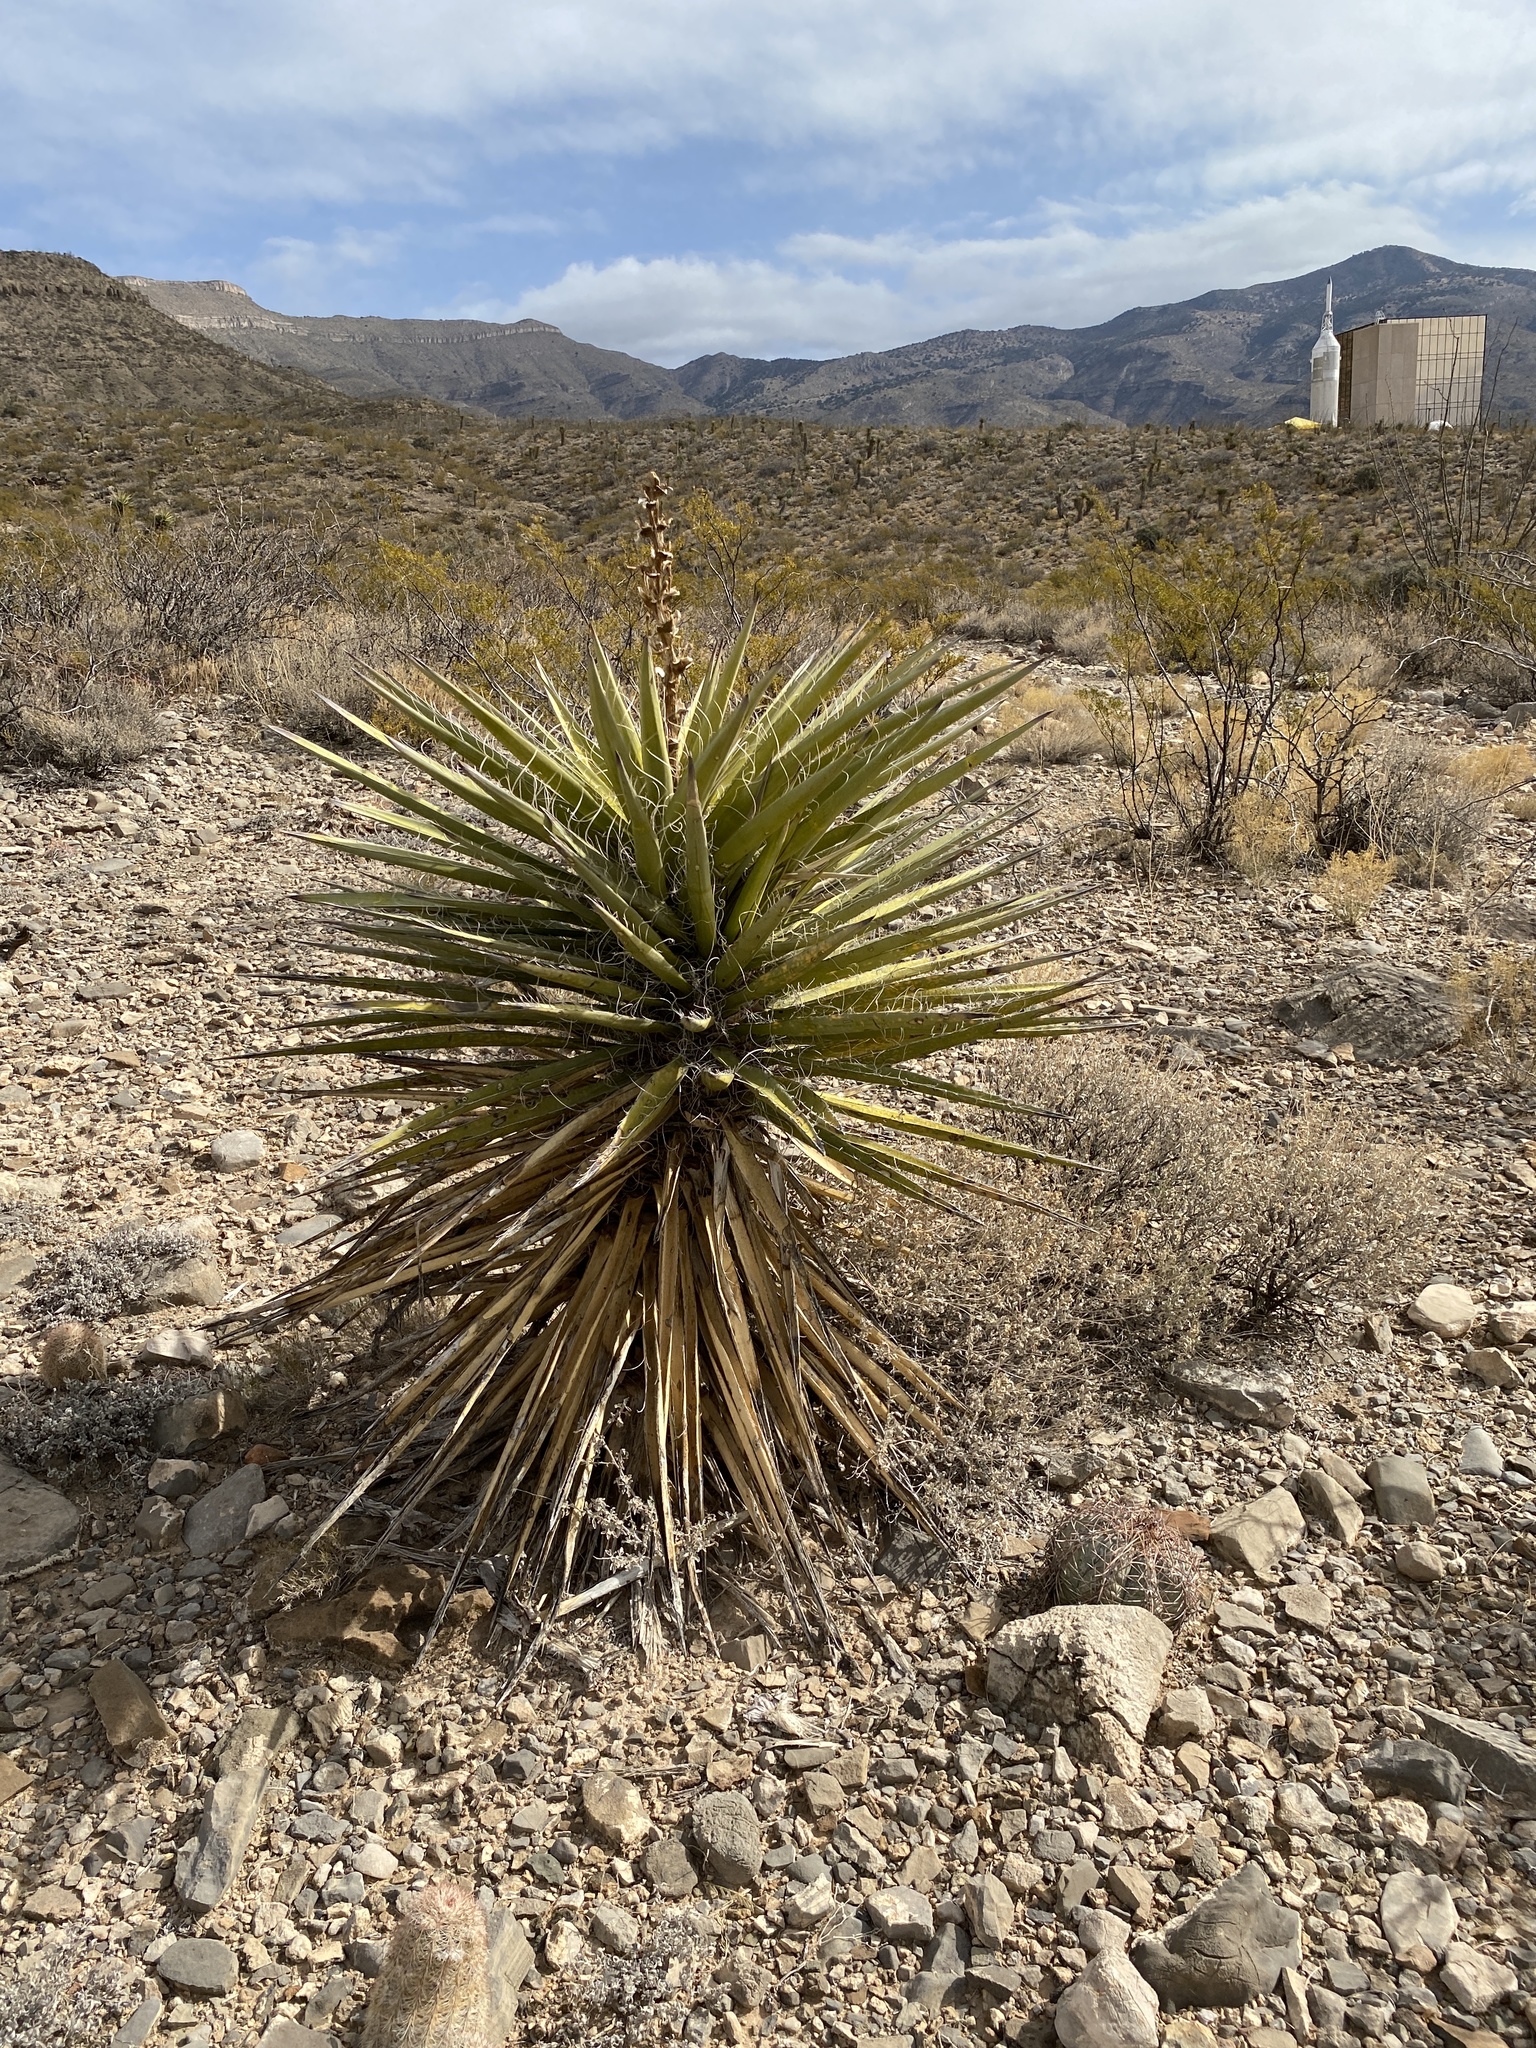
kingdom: Plantae
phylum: Tracheophyta
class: Liliopsida
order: Asparagales
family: Asparagaceae
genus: Yucca
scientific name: Yucca treculiana
